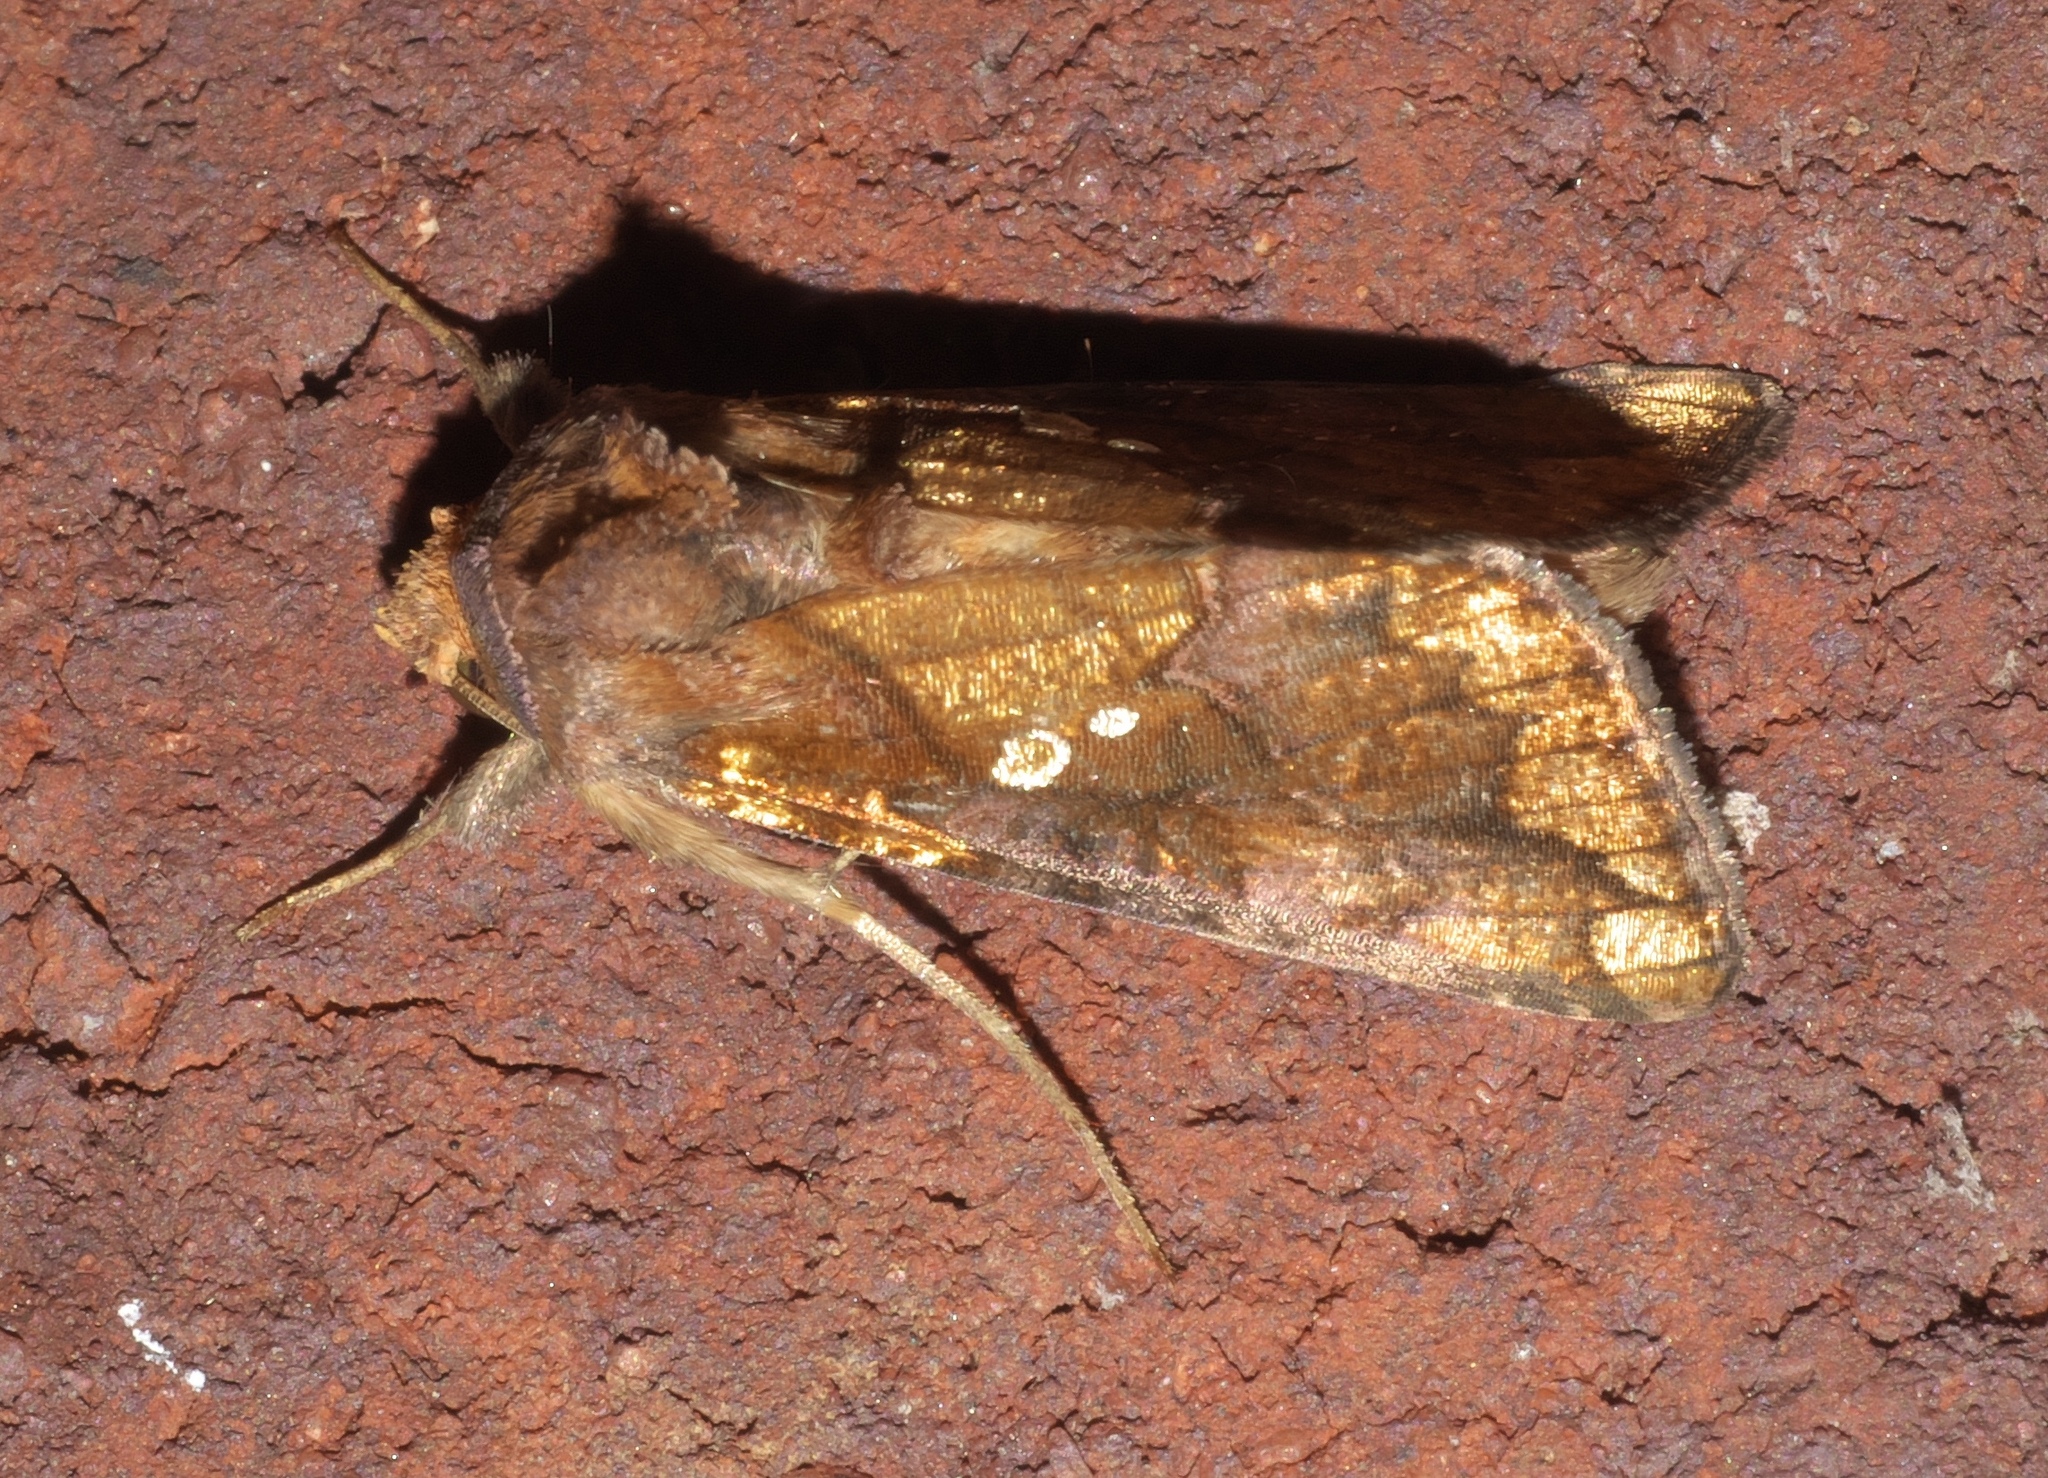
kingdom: Animalia
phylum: Arthropoda
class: Insecta
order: Lepidoptera
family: Noctuidae
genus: Argyrogramma
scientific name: Argyrogramma verruca
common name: Golden looper moth
